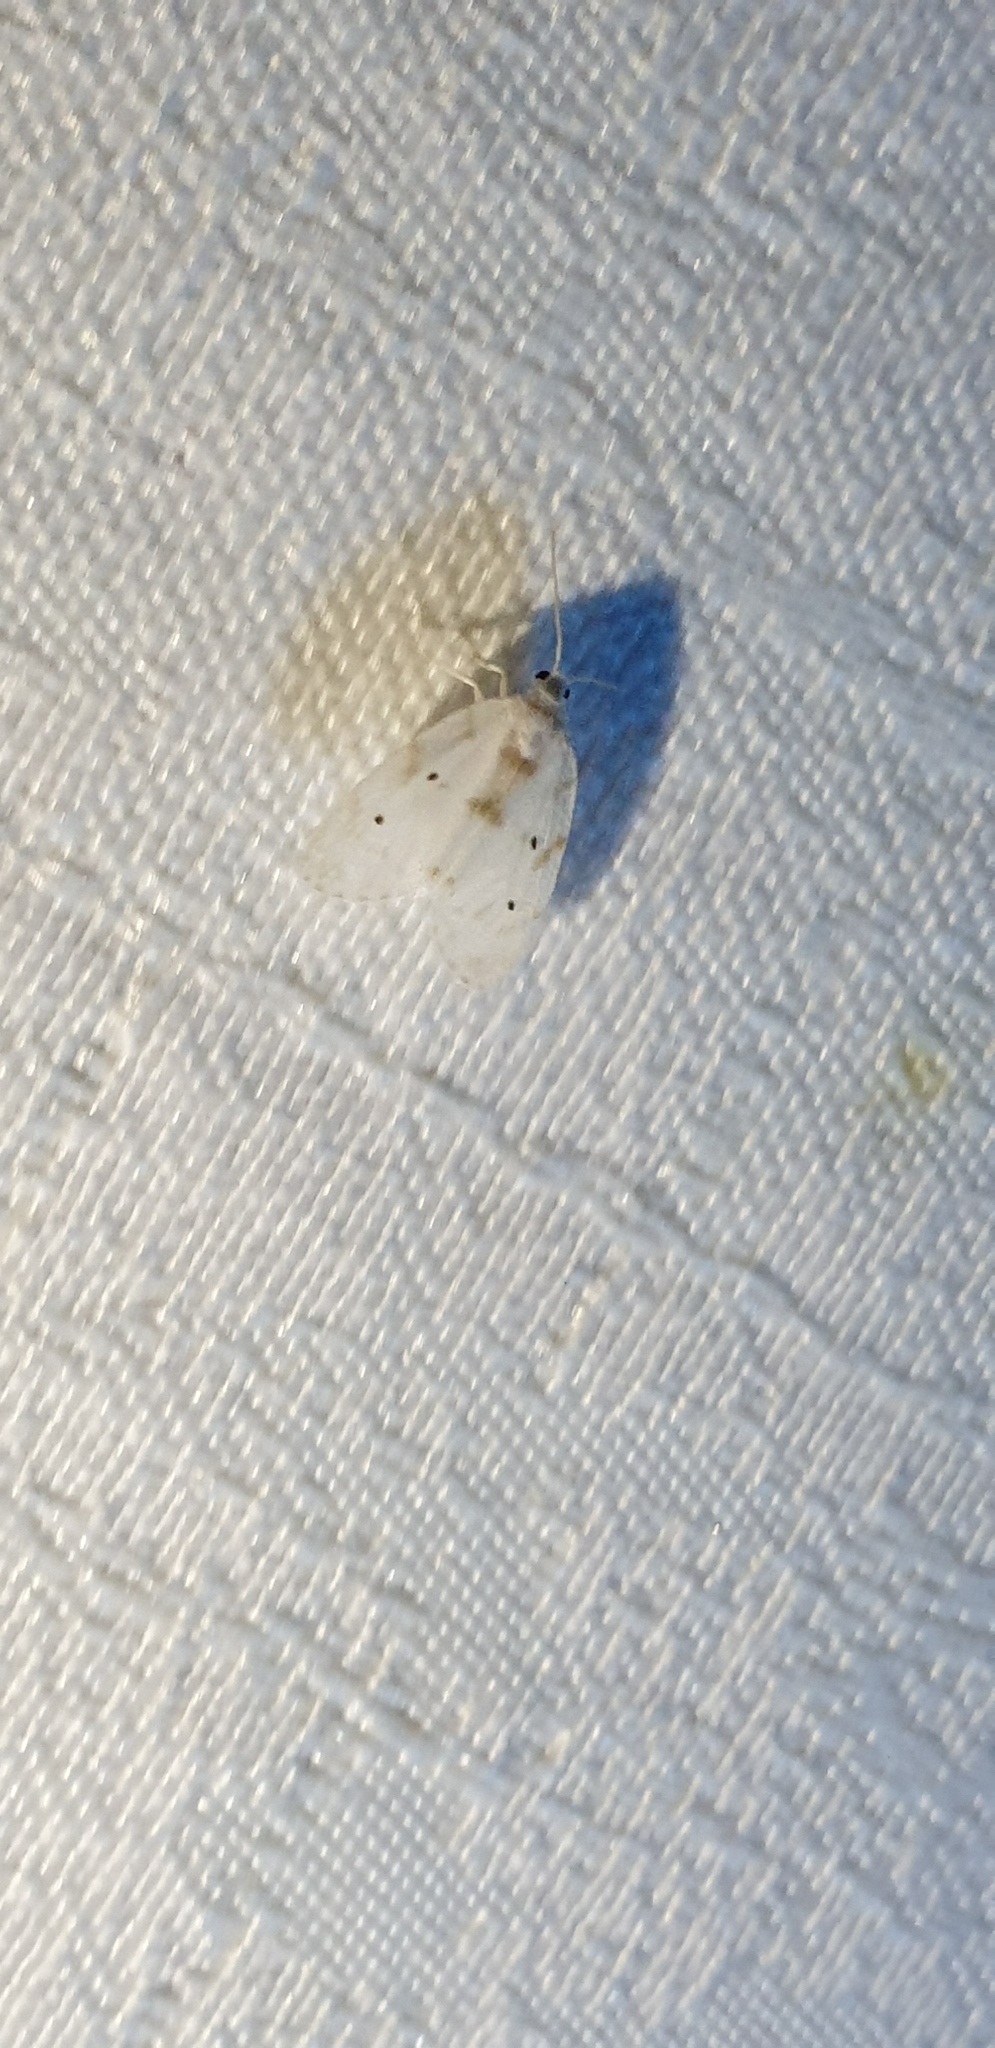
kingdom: Animalia
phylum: Arthropoda
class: Insecta
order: Lepidoptera
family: Erebidae
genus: Schistophleps
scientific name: Schistophleps albida
